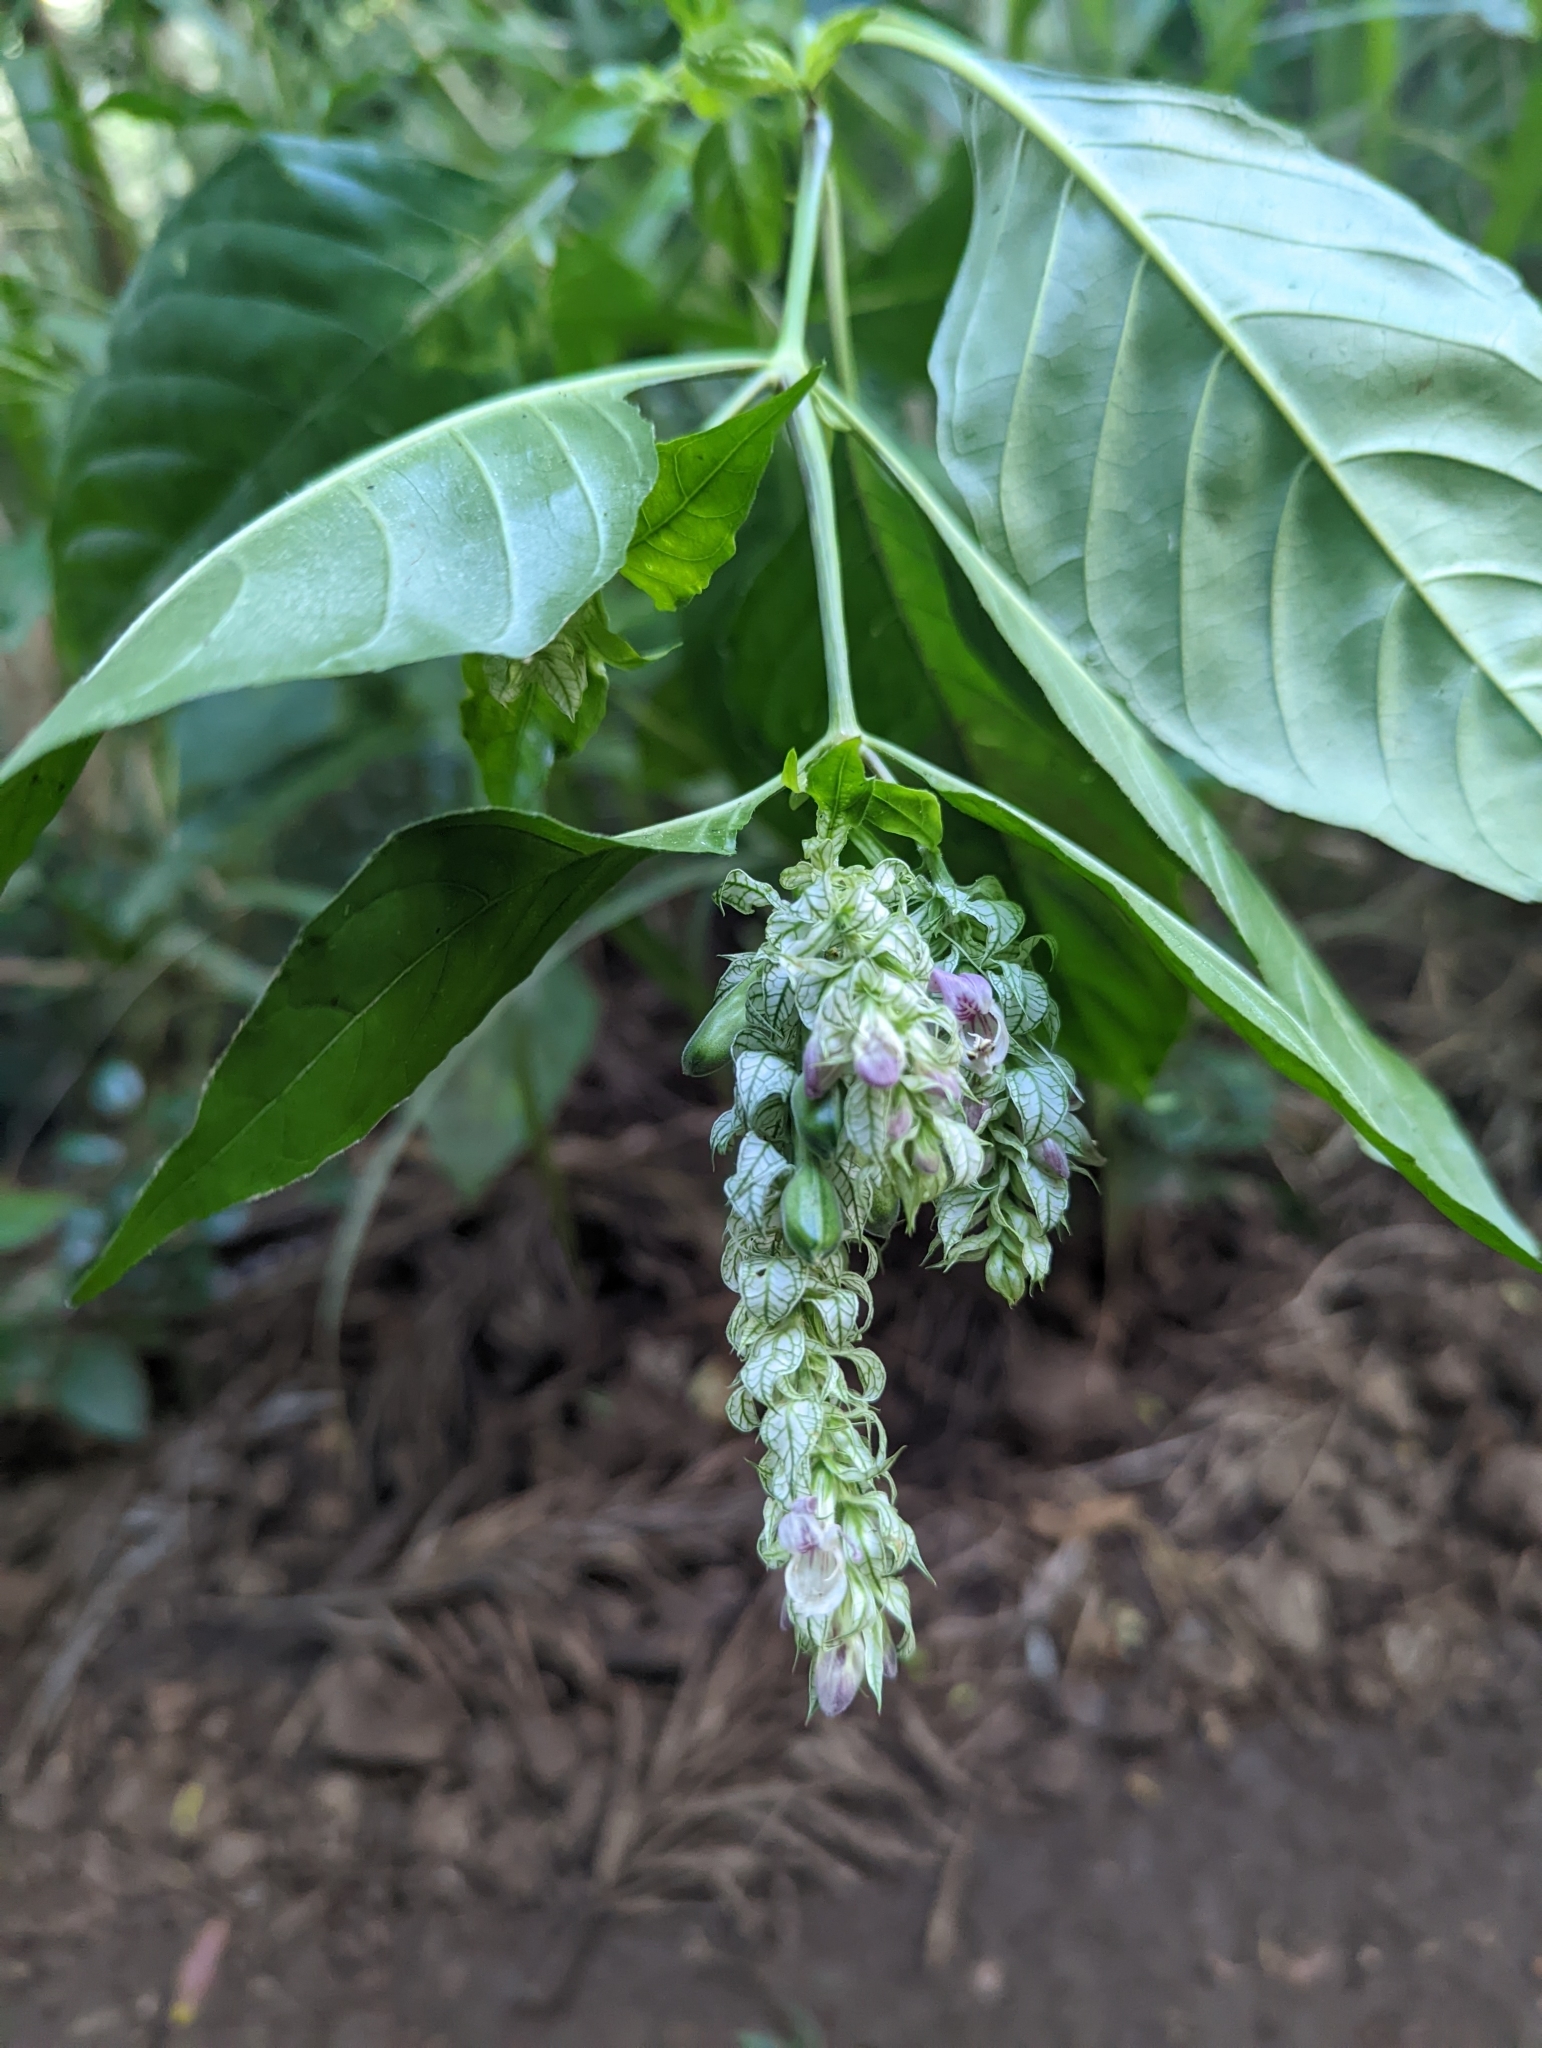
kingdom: Plantae
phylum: Tracheophyta
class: Magnoliopsida
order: Lamiales
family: Acanthaceae
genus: Justicia
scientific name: Justicia betonica
